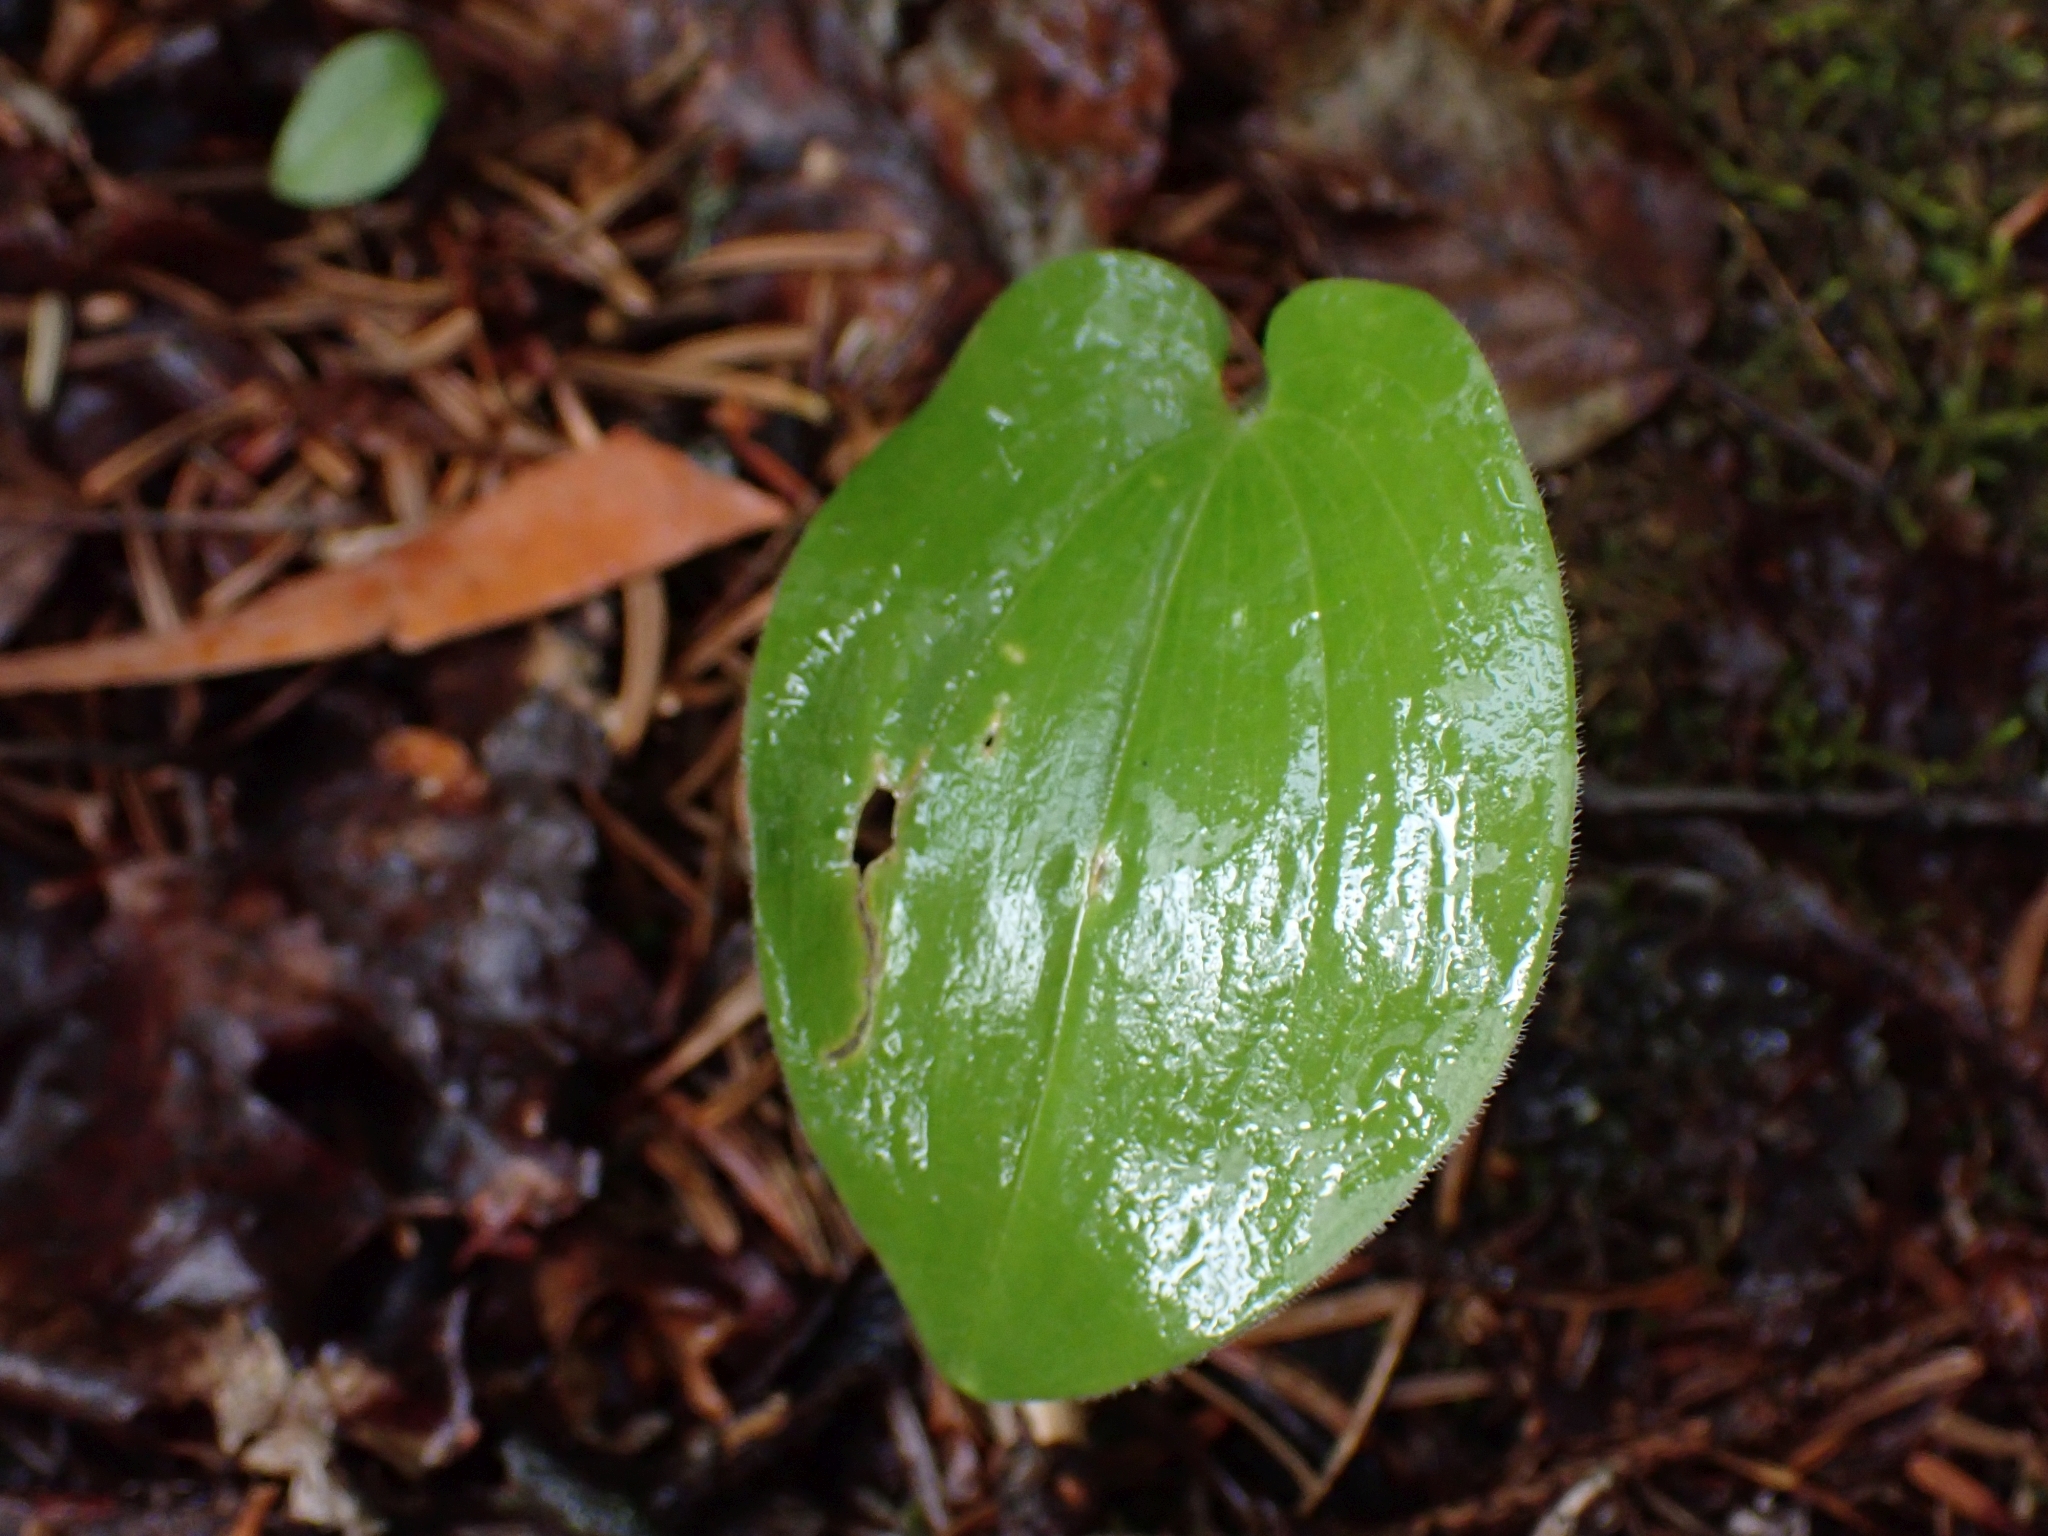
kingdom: Plantae
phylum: Tracheophyta
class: Liliopsida
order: Asparagales
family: Asparagaceae
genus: Maianthemum
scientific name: Maianthemum canadense
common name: False lily-of-the-valley
